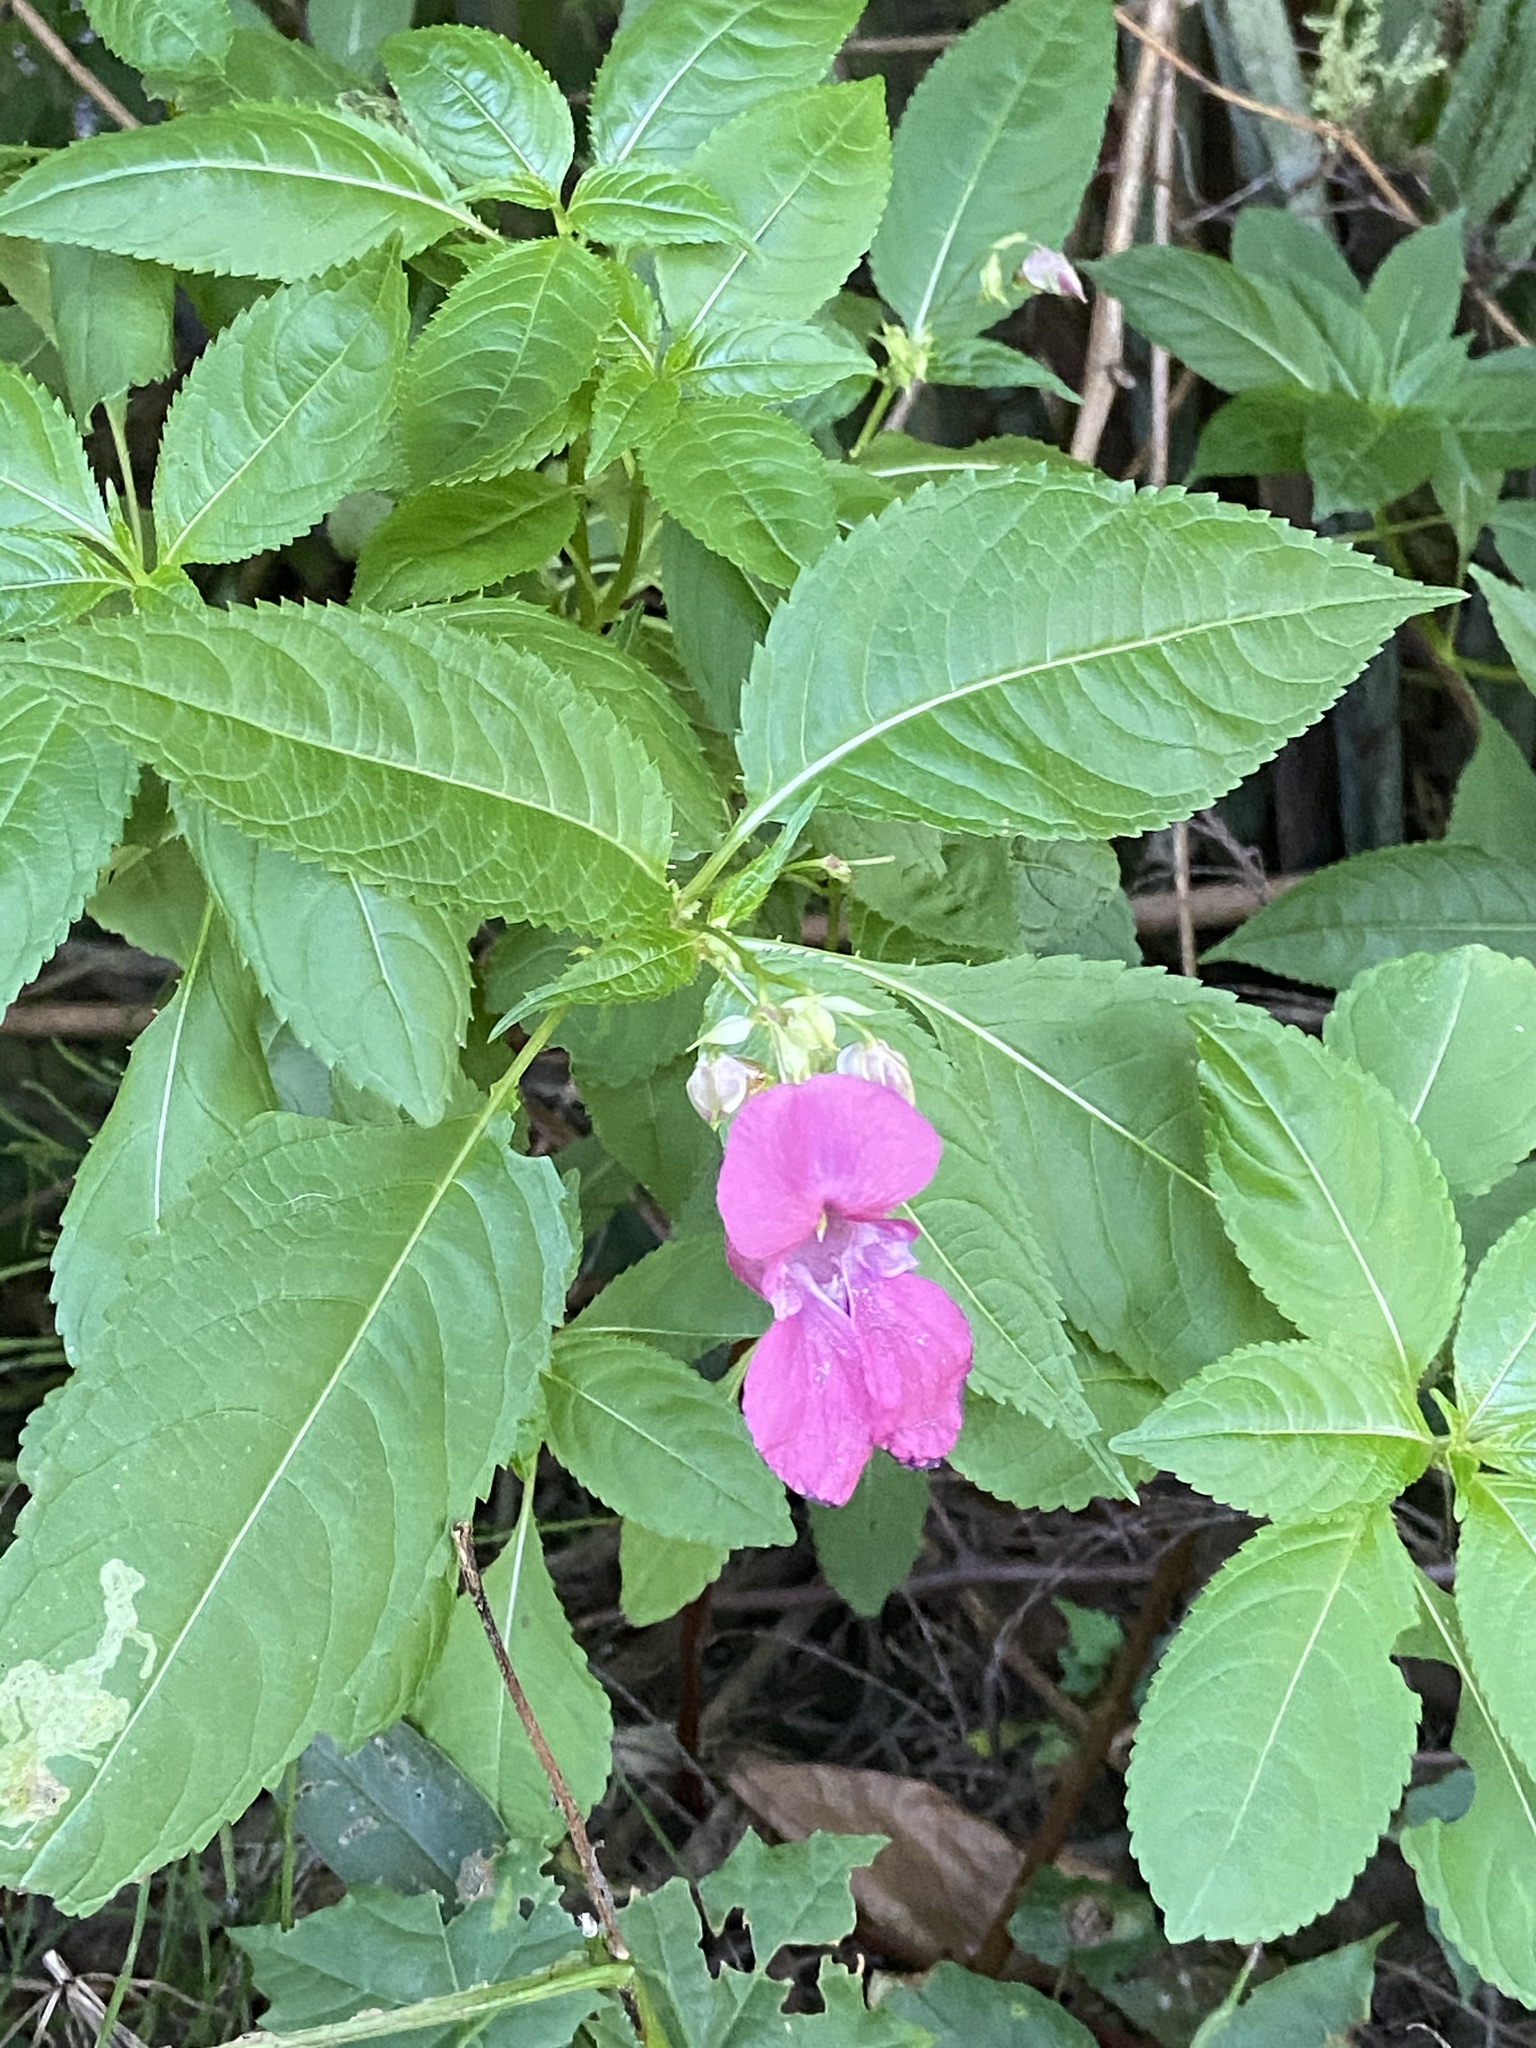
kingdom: Plantae
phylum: Tracheophyta
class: Magnoliopsida
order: Ericales
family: Balsaminaceae
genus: Impatiens
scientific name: Impatiens glandulifera
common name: Himalayan balsam
